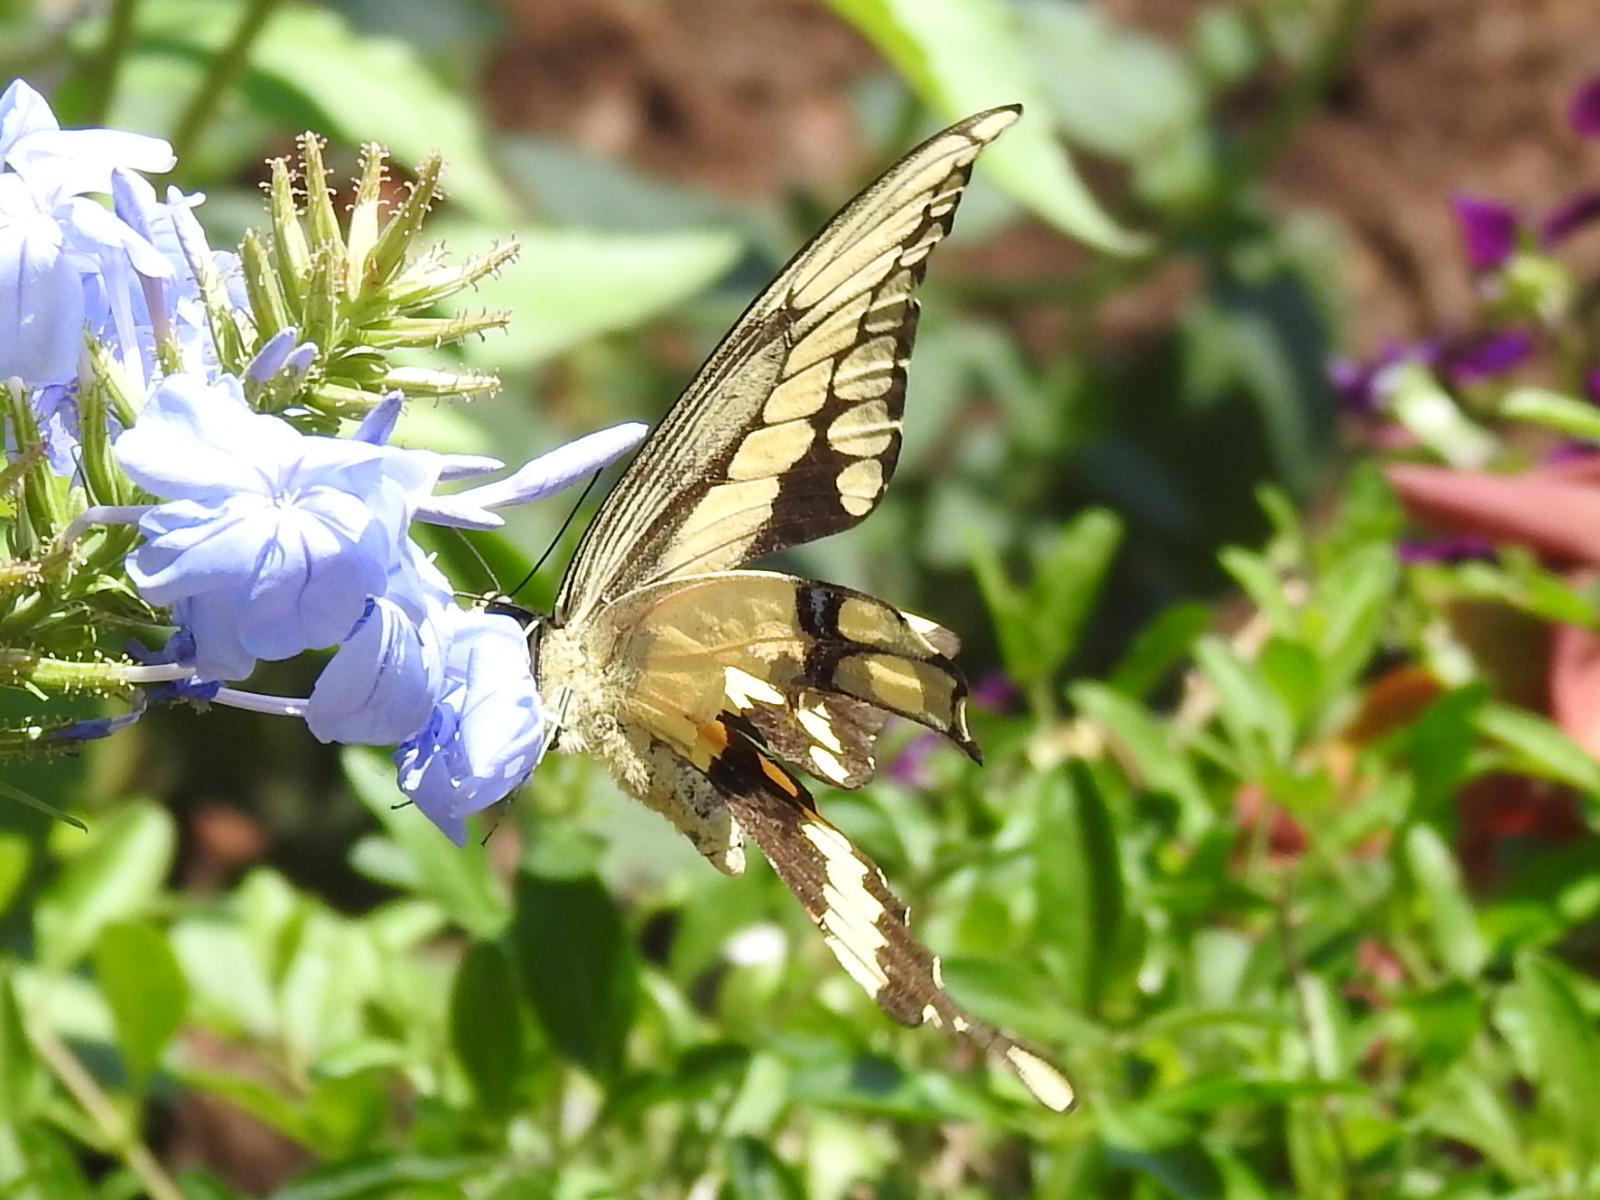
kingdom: Animalia
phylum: Arthropoda
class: Insecta
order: Lepidoptera
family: Papilionidae
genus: Papilio
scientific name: Papilio cresphontes
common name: Giant swallowtail
